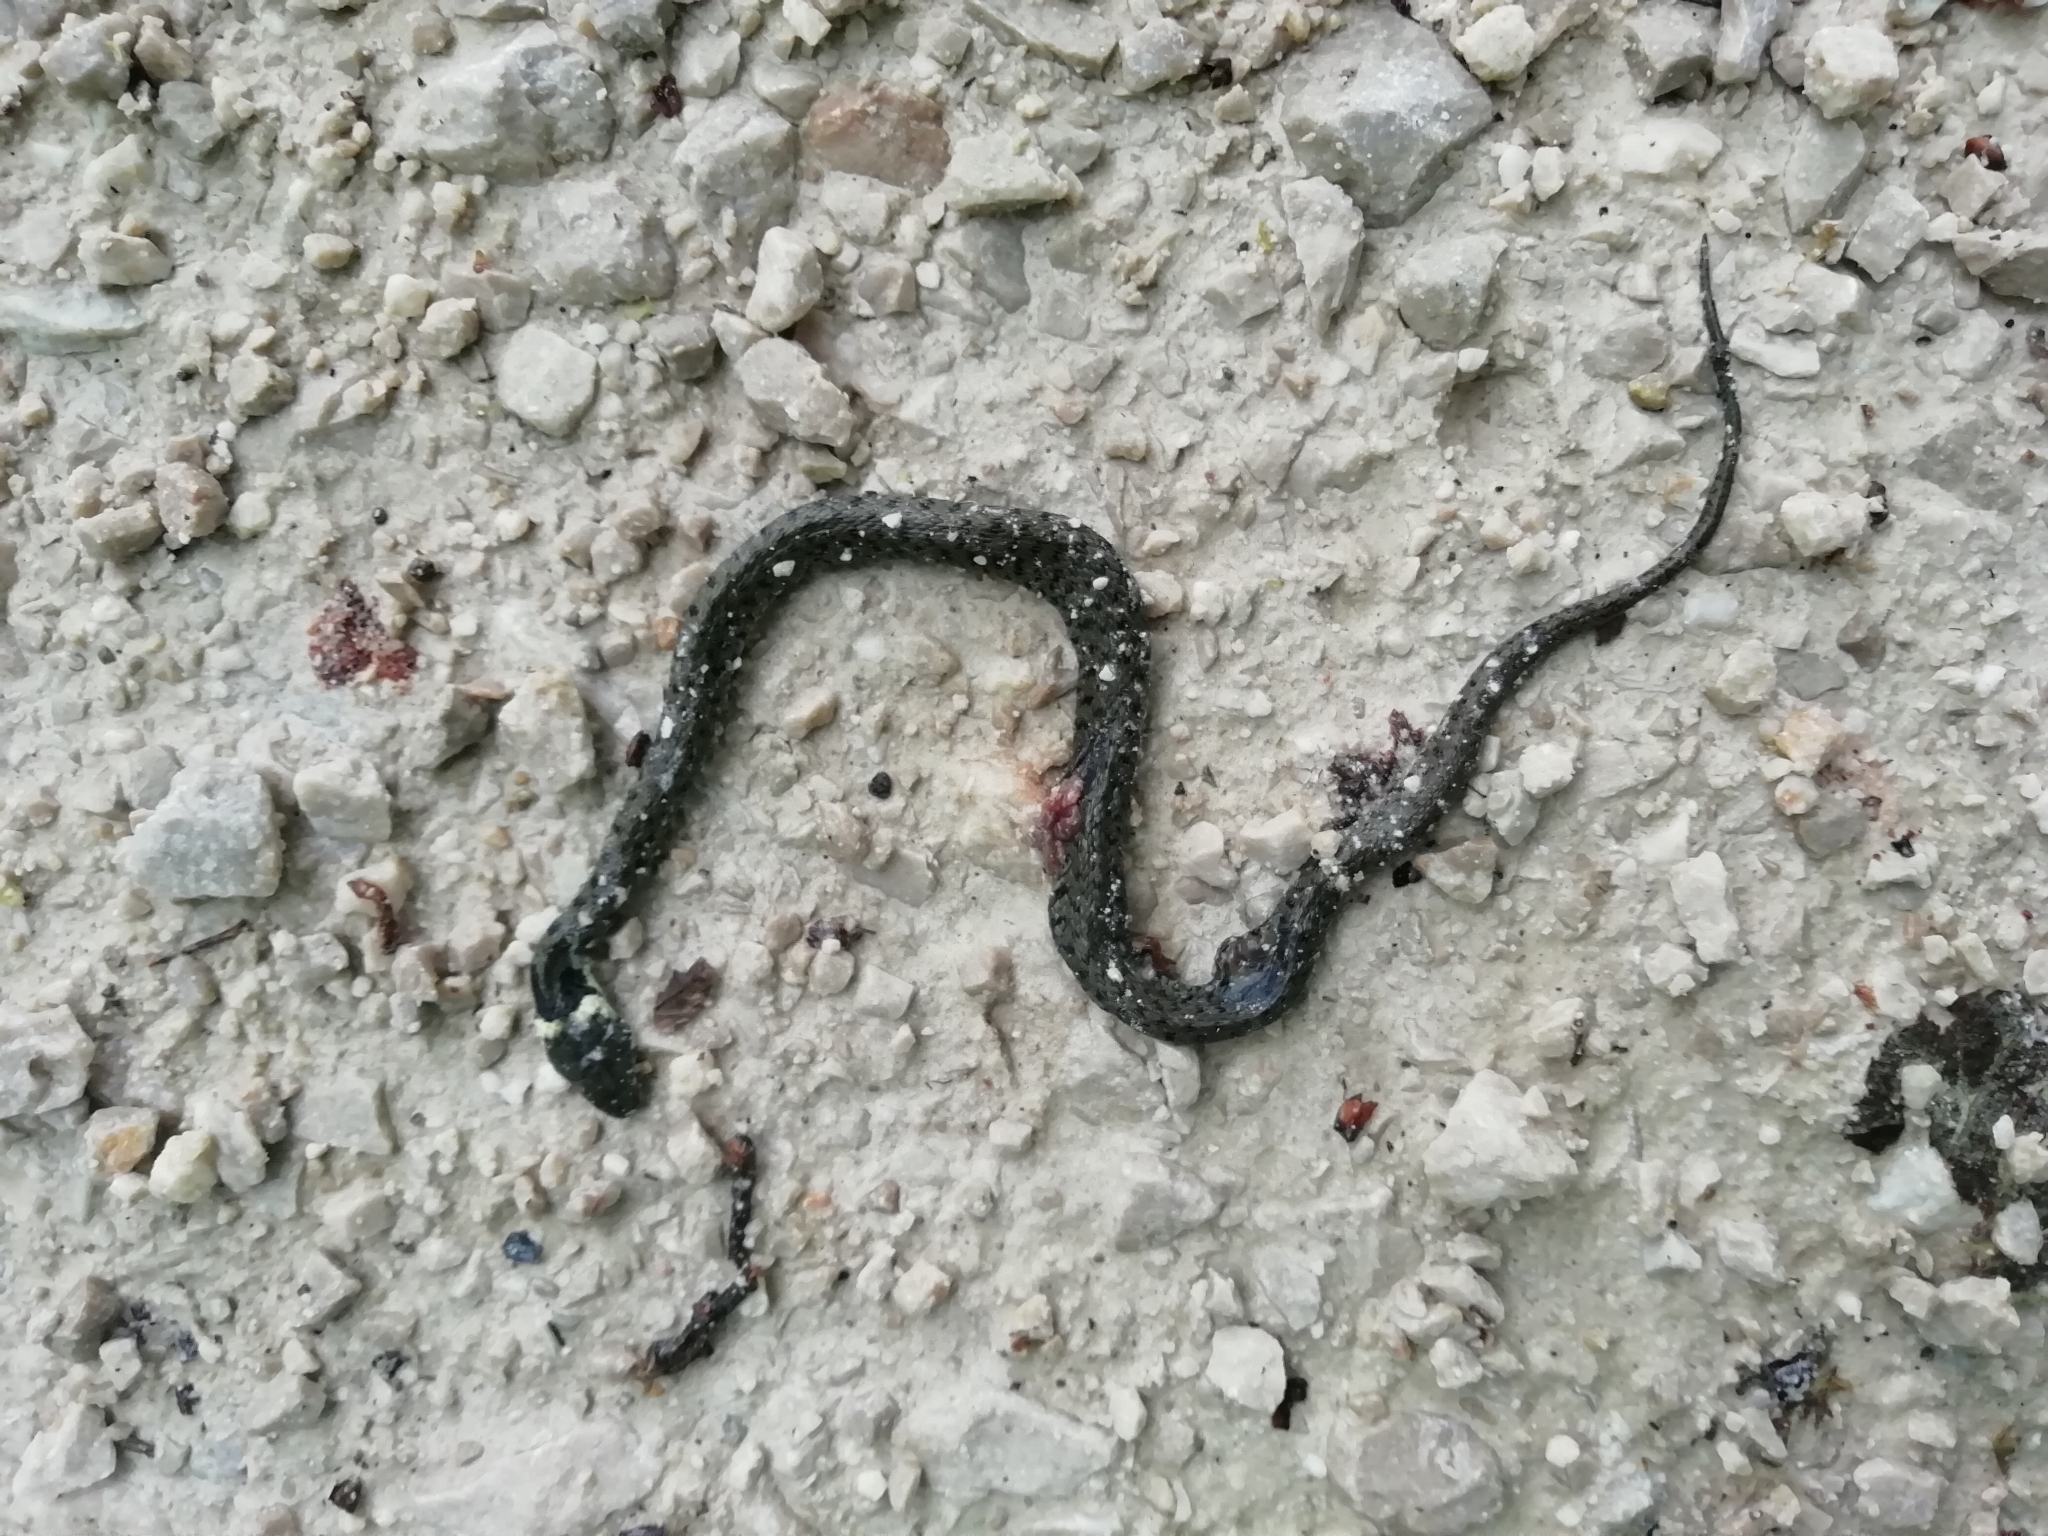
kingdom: Animalia
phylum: Chordata
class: Squamata
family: Colubridae
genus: Natrix
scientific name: Natrix natrix
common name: Grass snake
